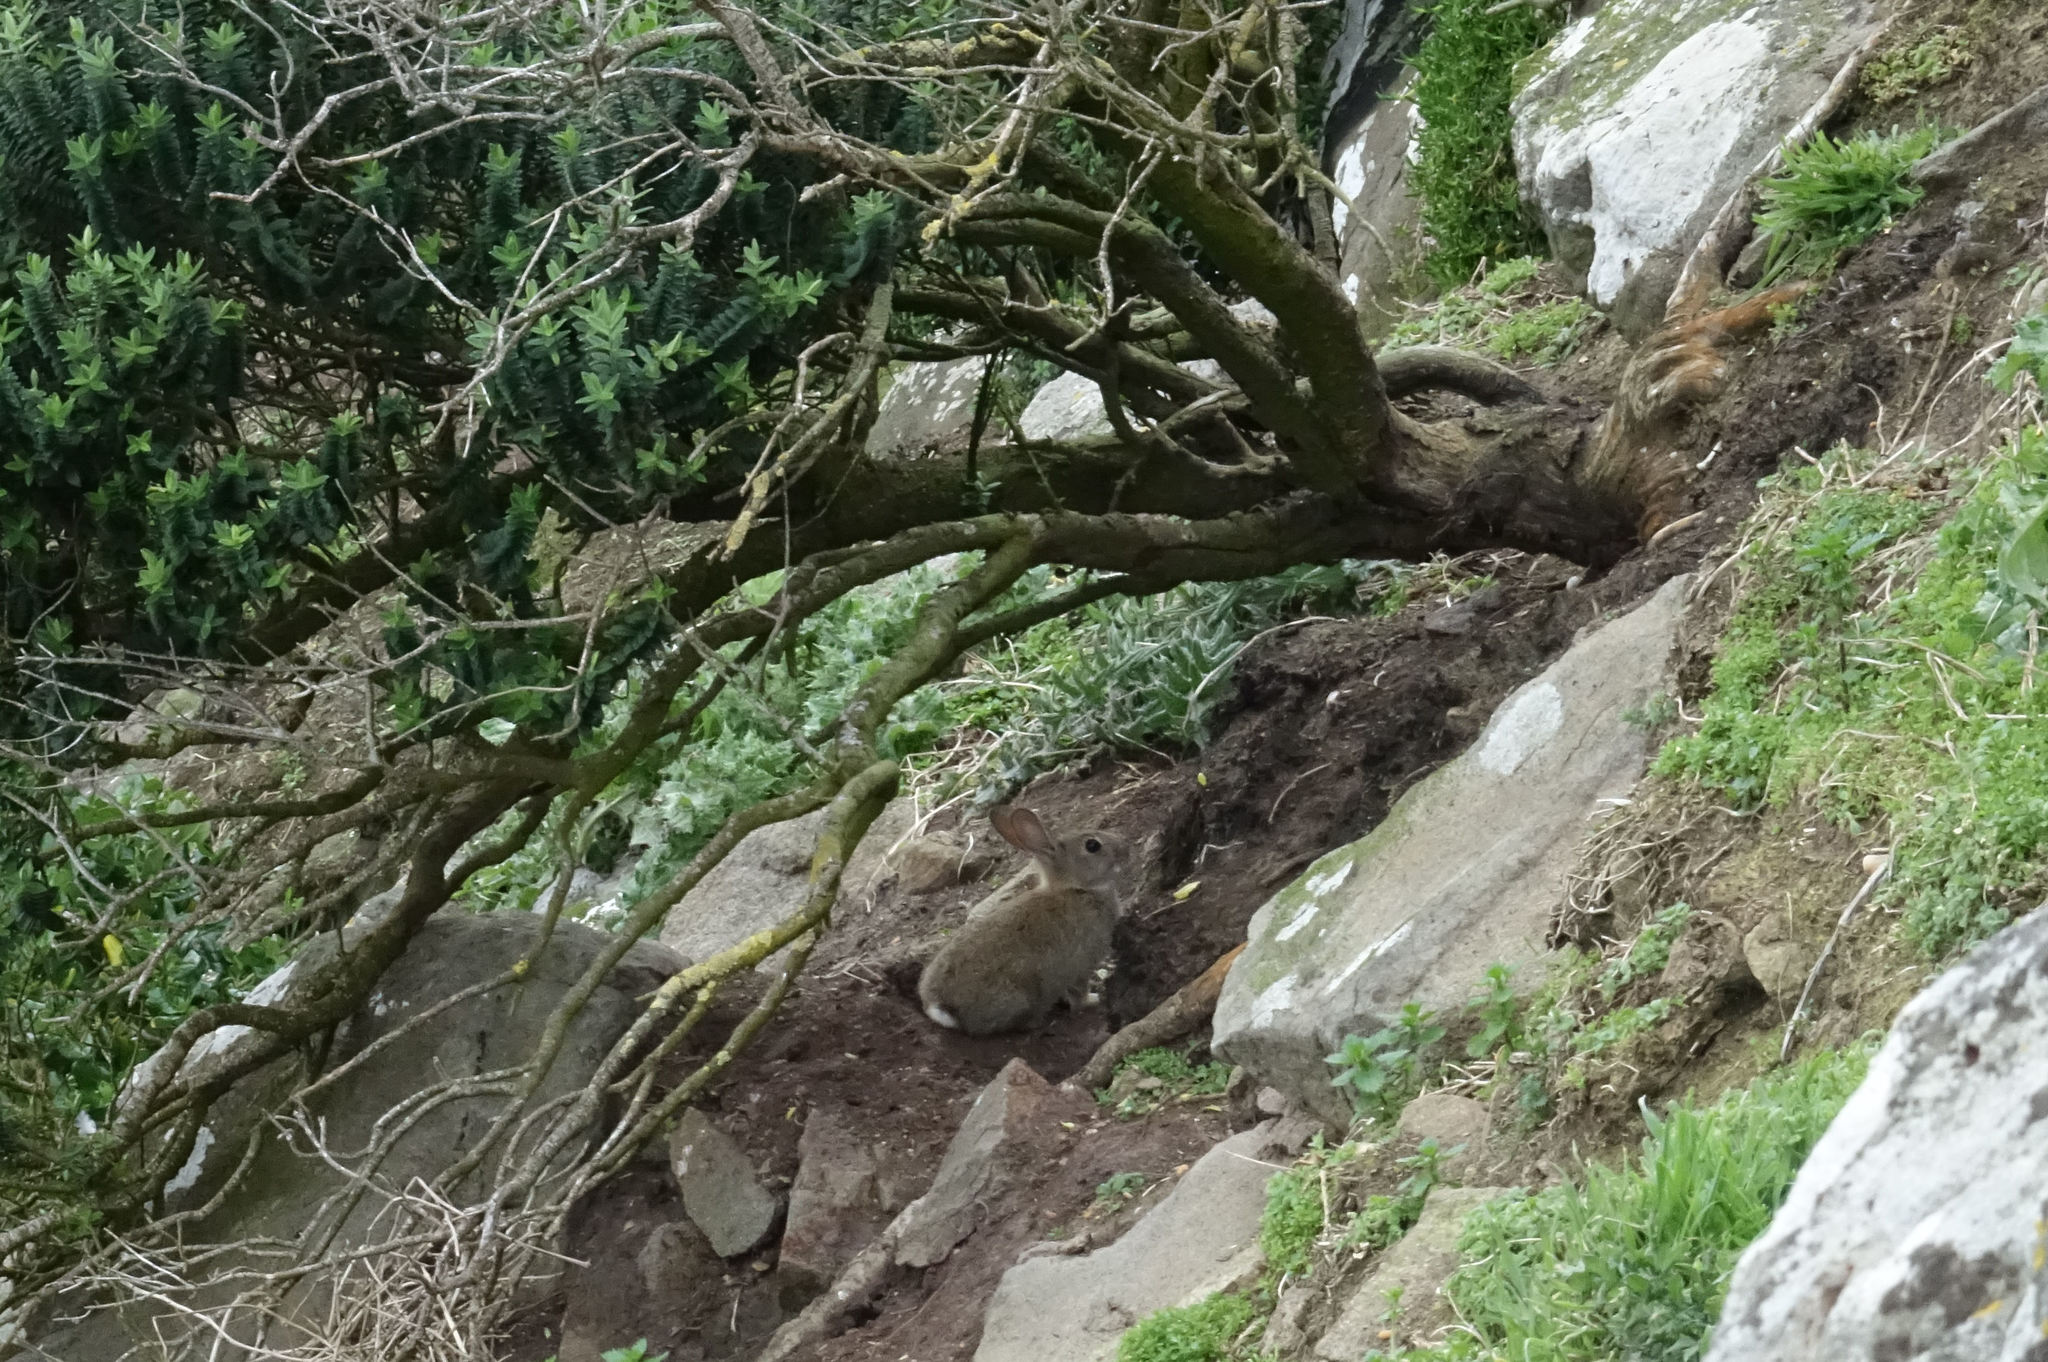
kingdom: Animalia
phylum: Chordata
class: Mammalia
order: Lagomorpha
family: Leporidae
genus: Oryctolagus
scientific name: Oryctolagus cuniculus
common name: European rabbit
